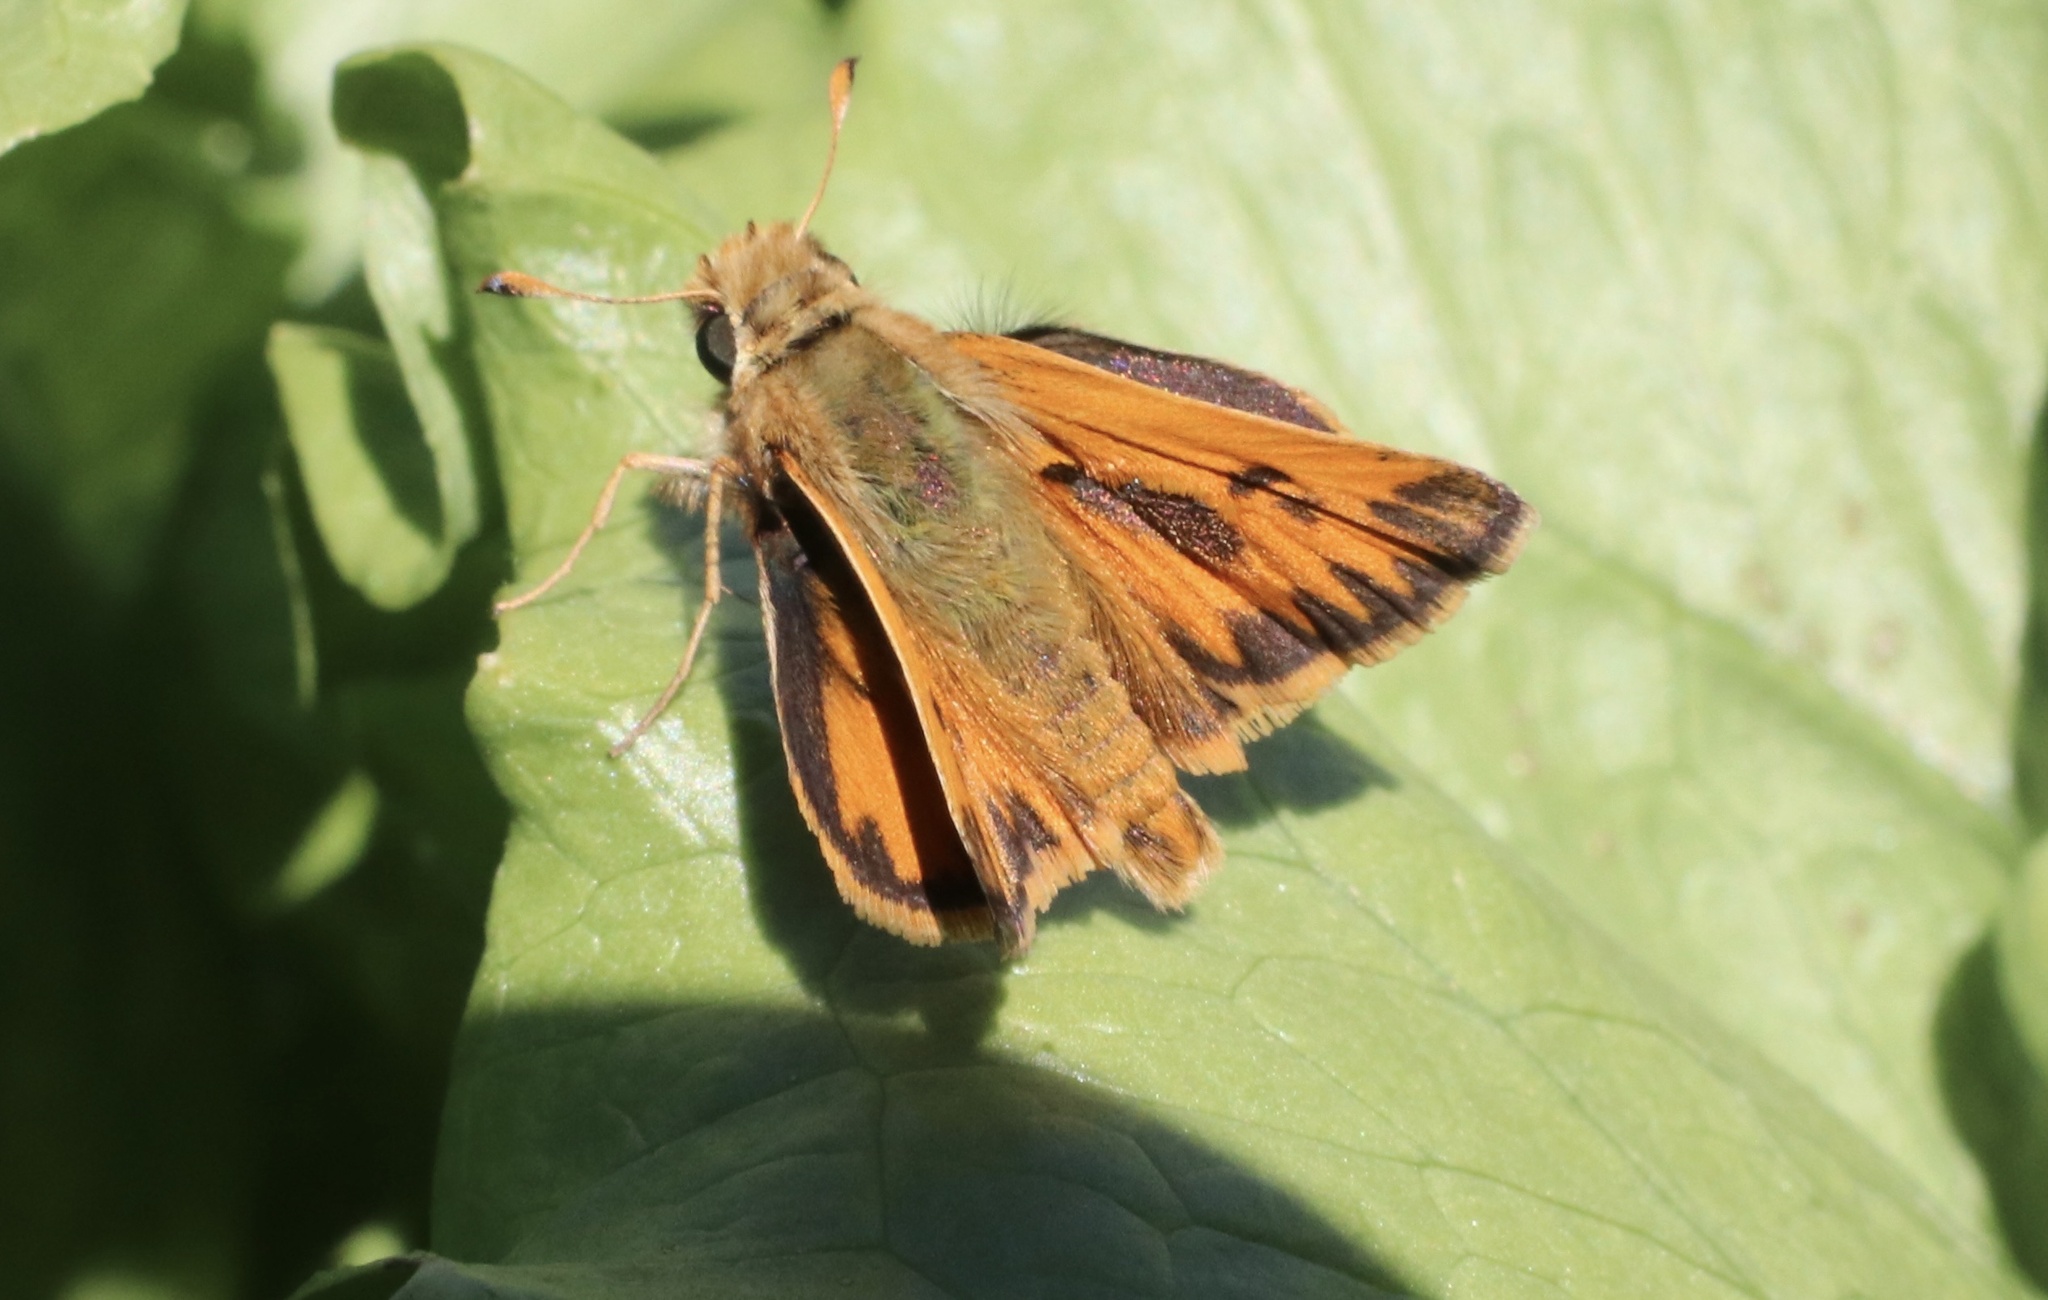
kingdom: Animalia
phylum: Arthropoda
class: Insecta
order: Lepidoptera
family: Hesperiidae
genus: Hylephila
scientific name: Hylephila fasciolata
